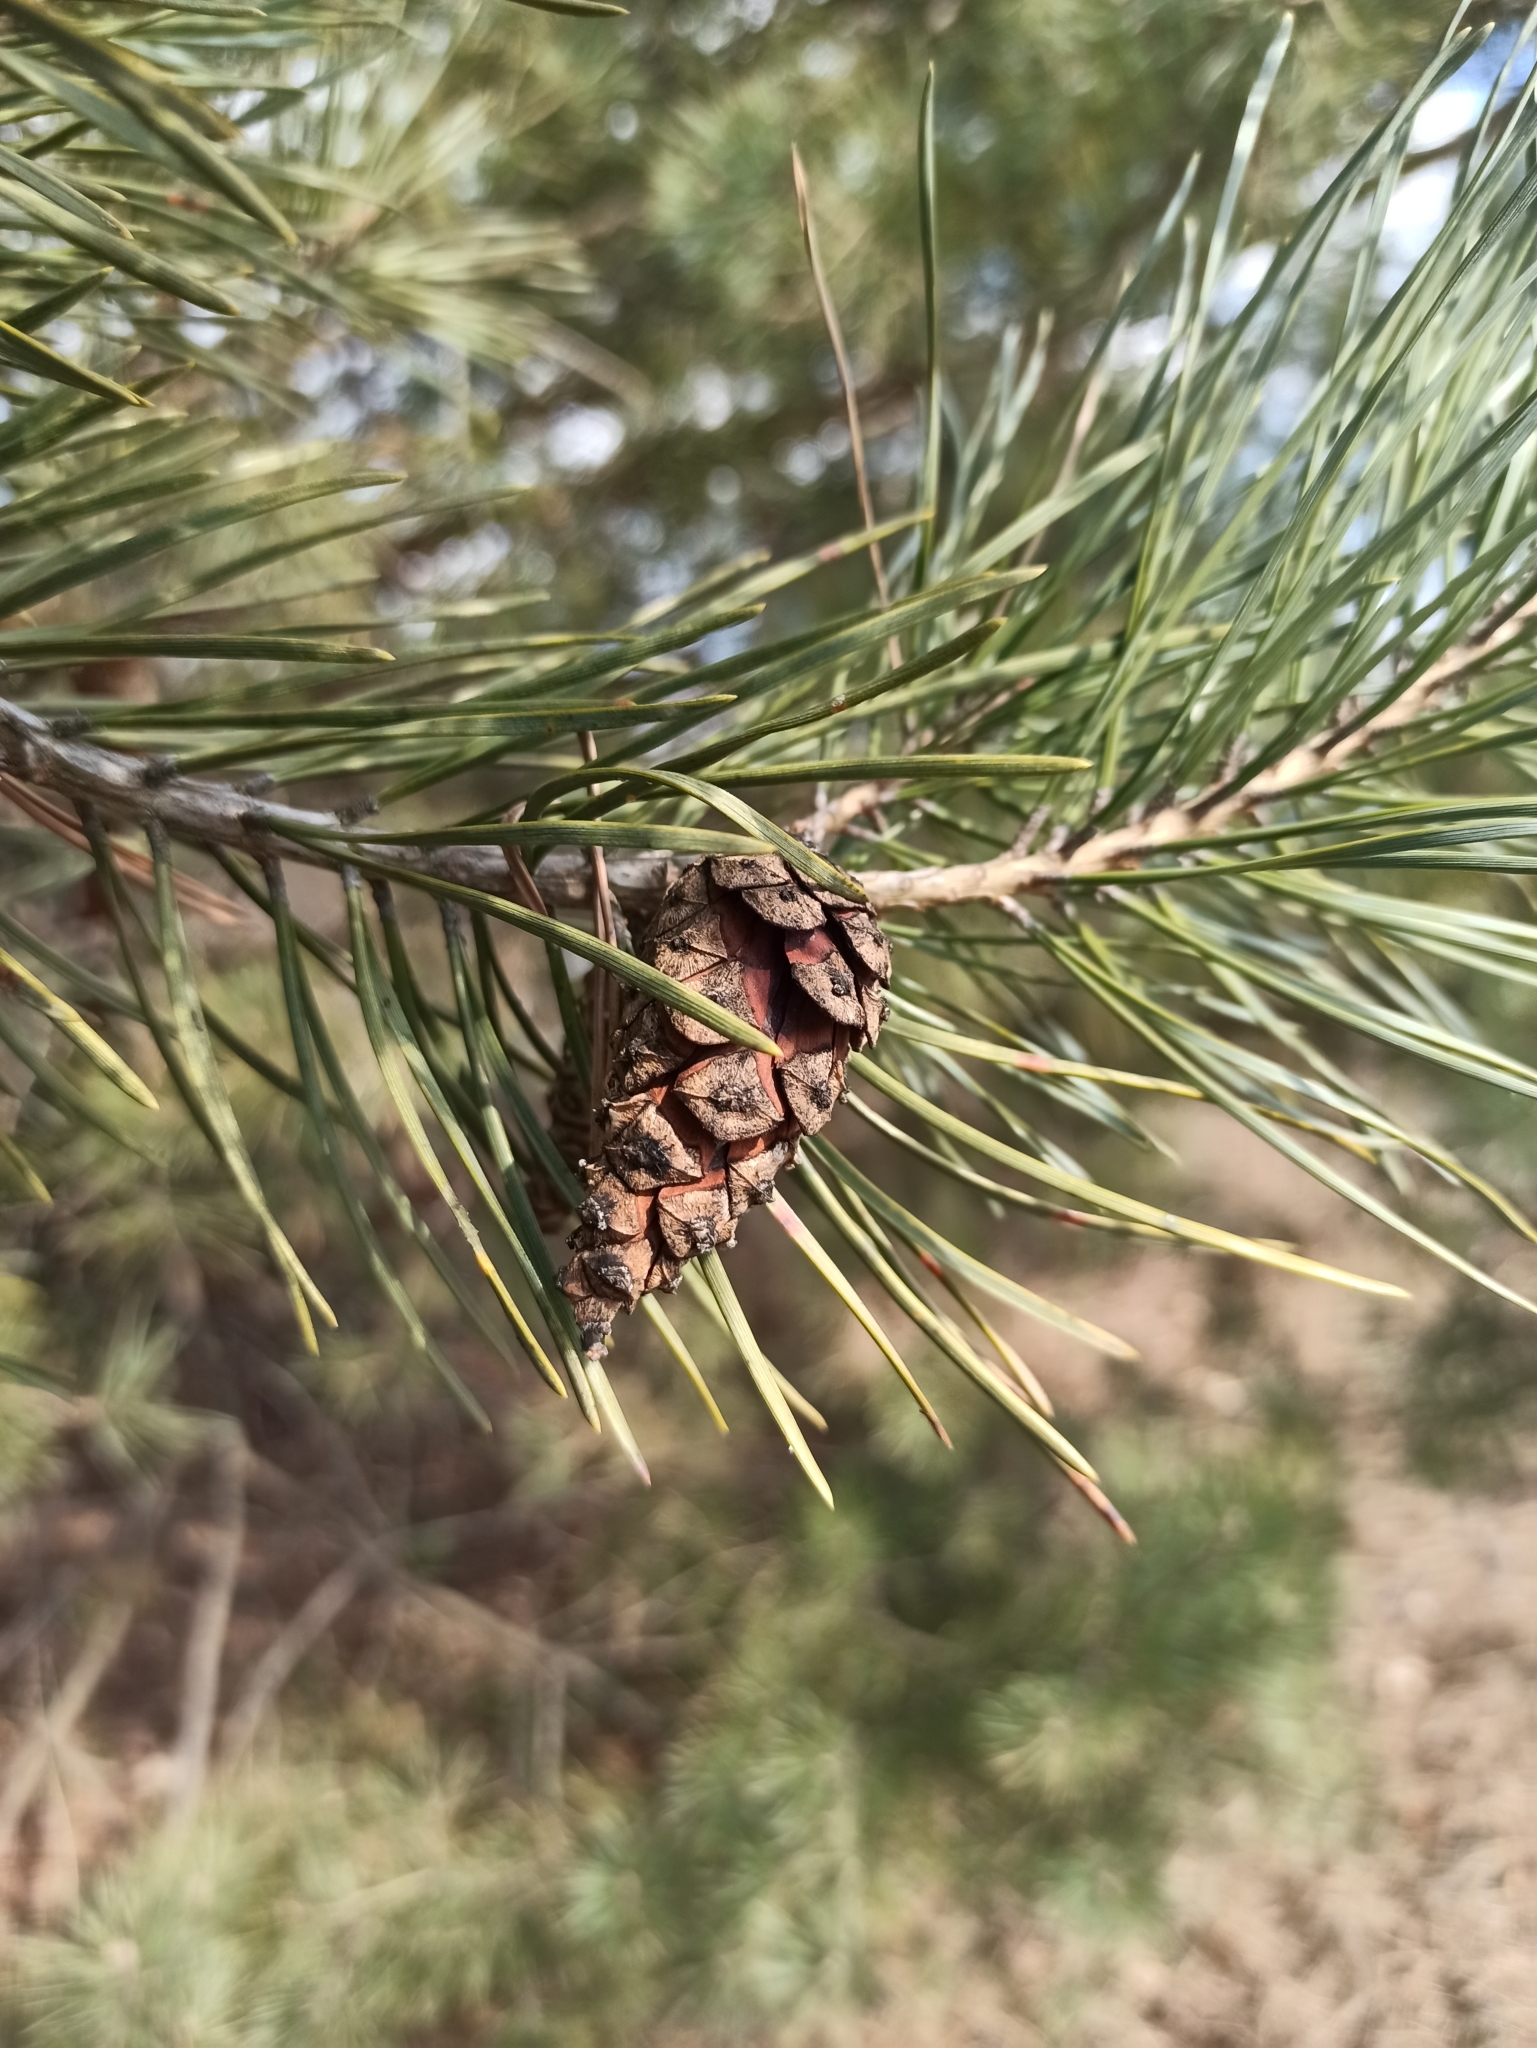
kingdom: Plantae
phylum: Tracheophyta
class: Pinopsida
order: Pinales
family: Pinaceae
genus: Pinus
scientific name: Pinus sylvestris
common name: Scots pine
